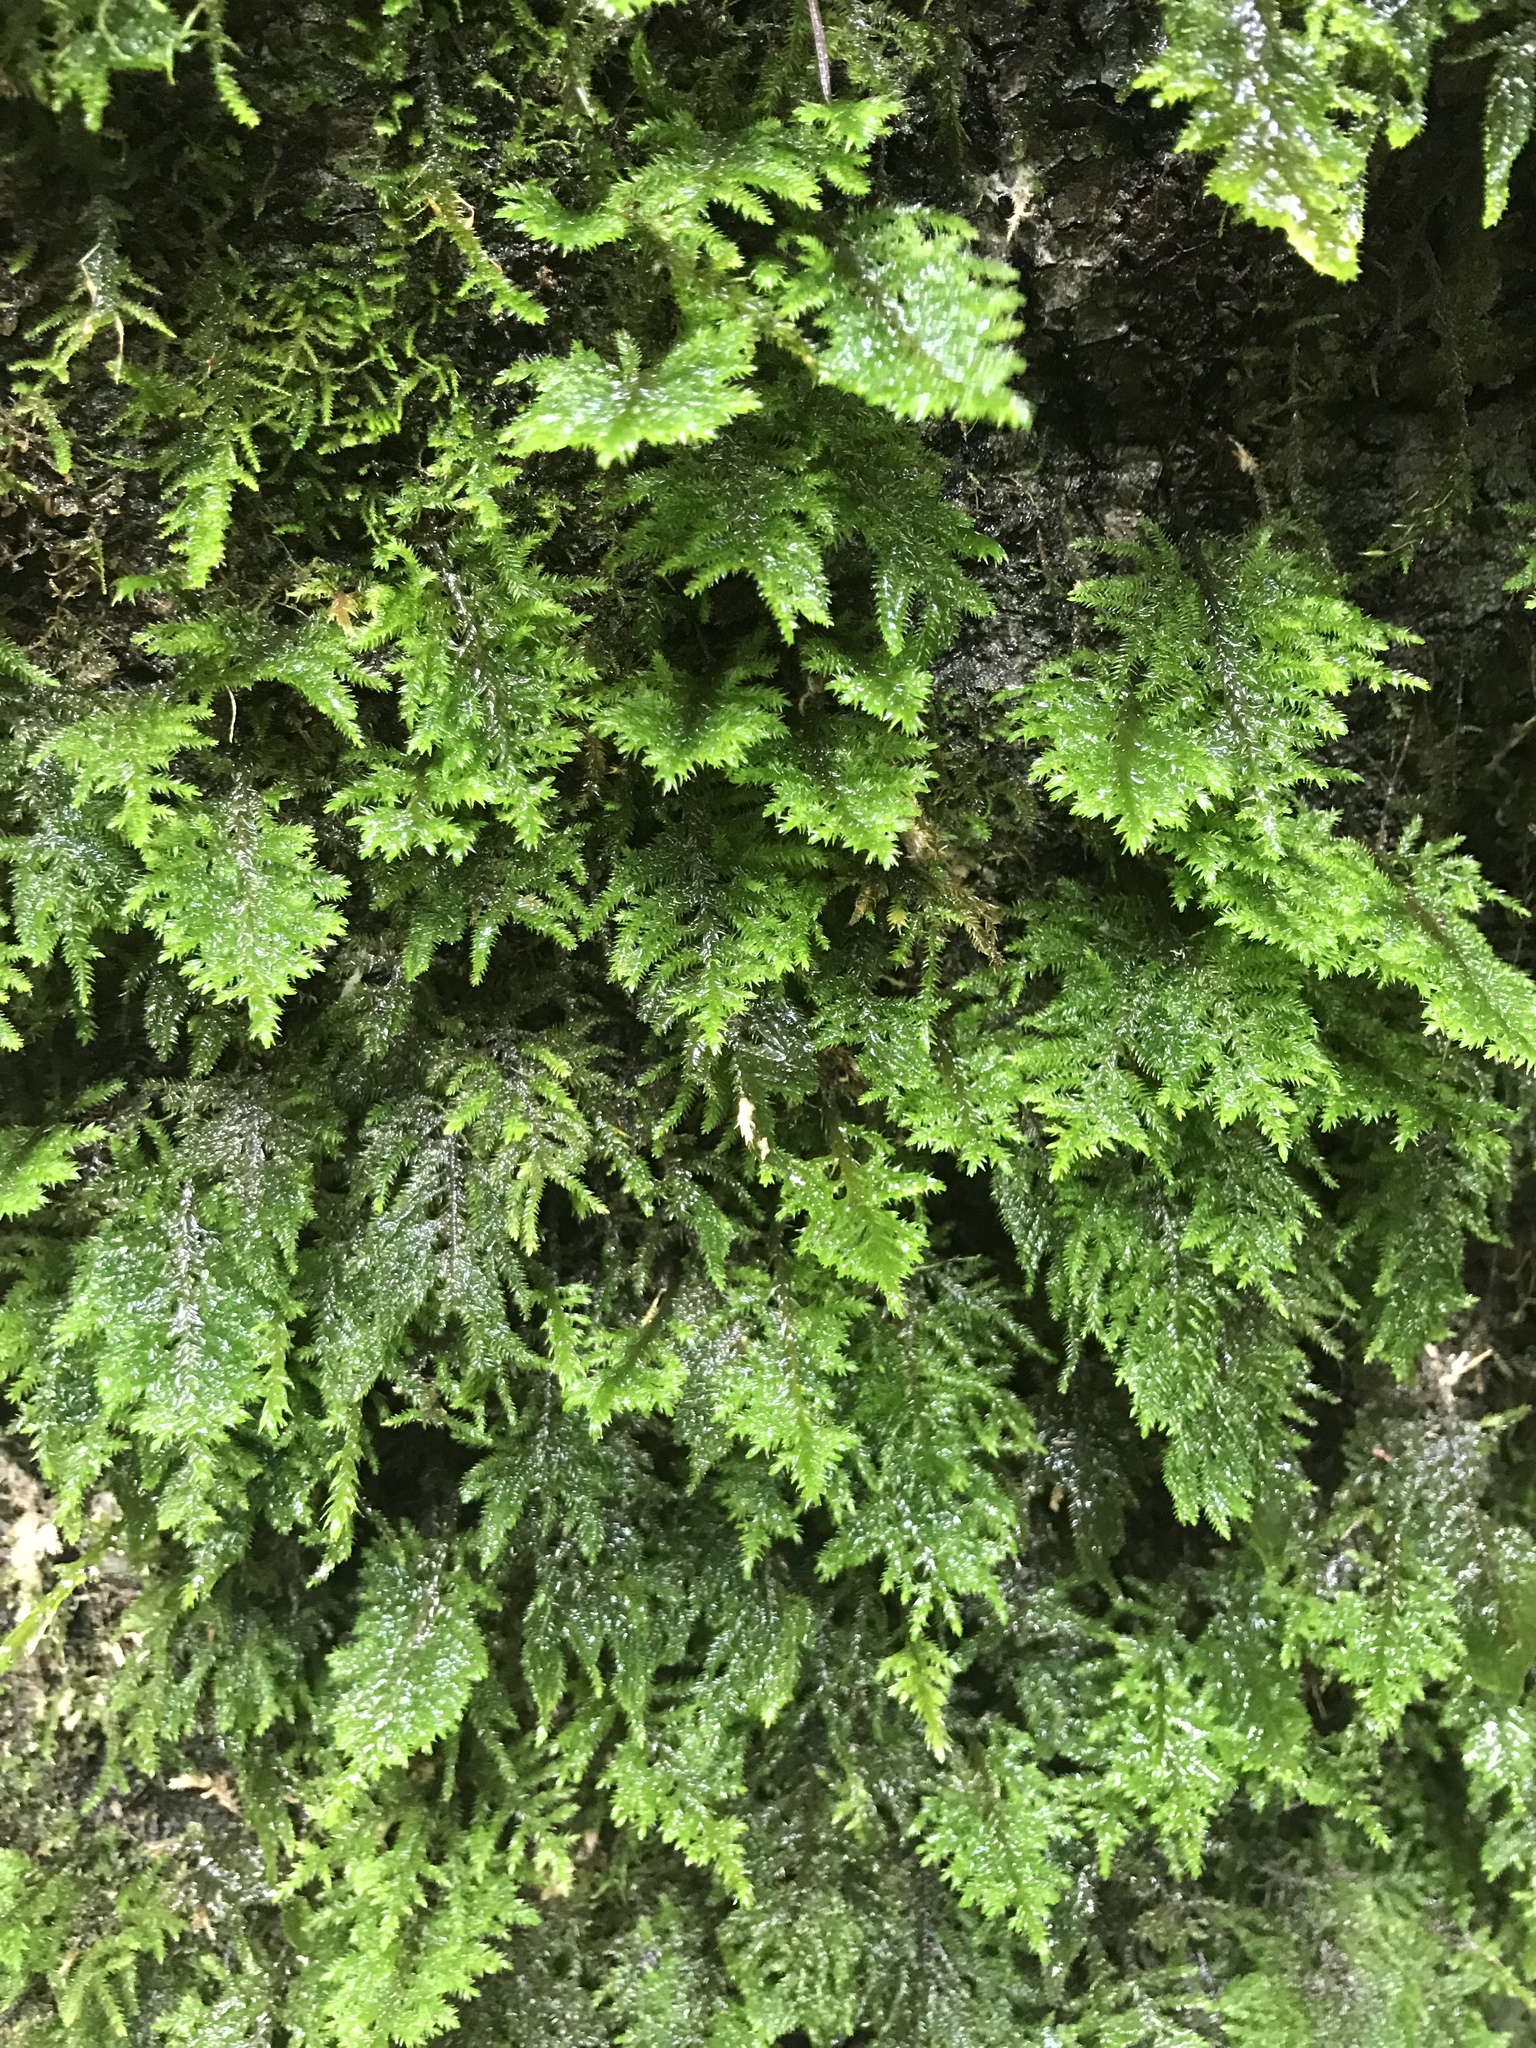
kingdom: Plantae
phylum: Bryophyta
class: Bryopsida
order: Hypnales
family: Cryphaeaceae
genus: Dendroalsia
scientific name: Dendroalsia abietina
